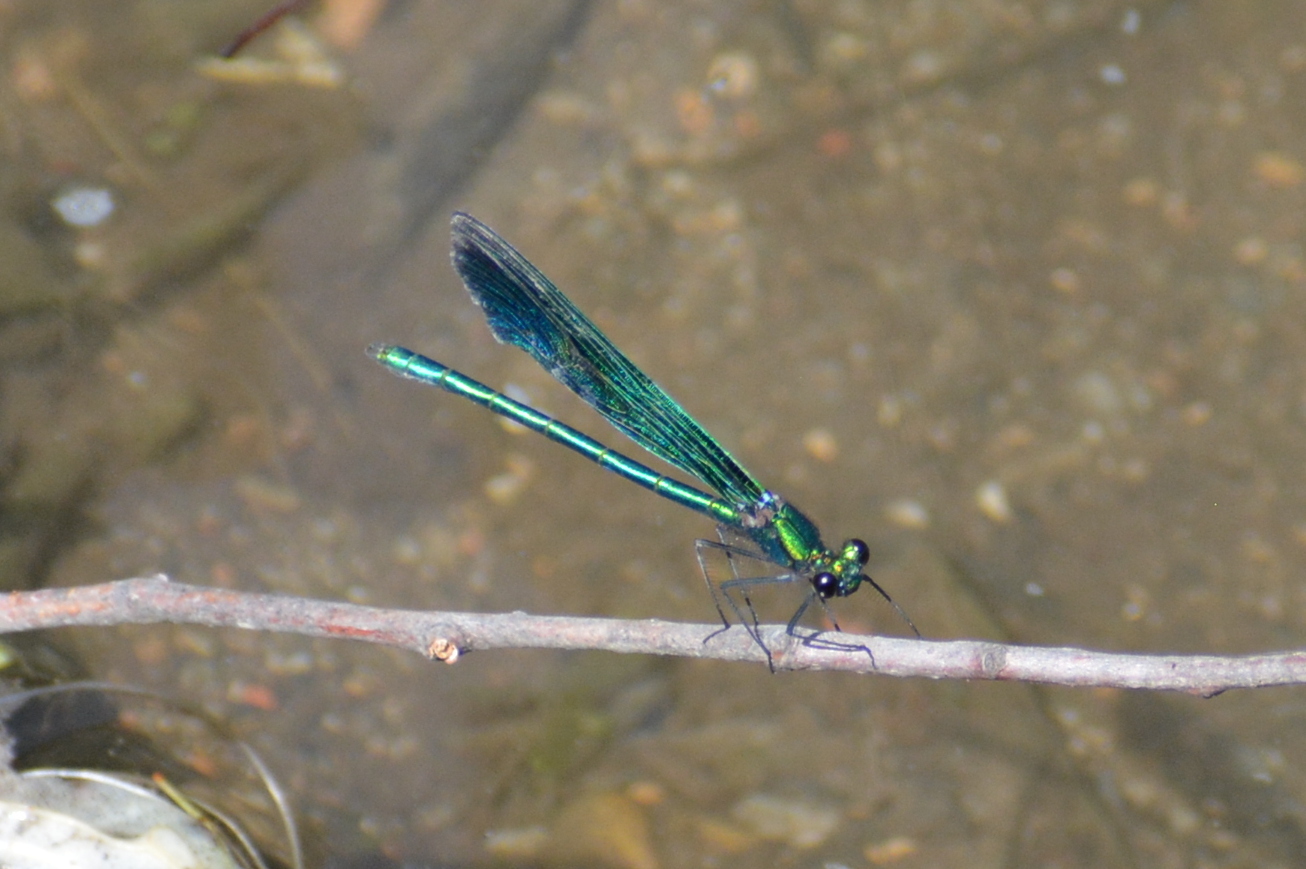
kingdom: Animalia
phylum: Arthropoda
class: Insecta
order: Odonata
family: Calopterygidae
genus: Calopteryx
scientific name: Calopteryx virgo
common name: Beautiful demoiselle
